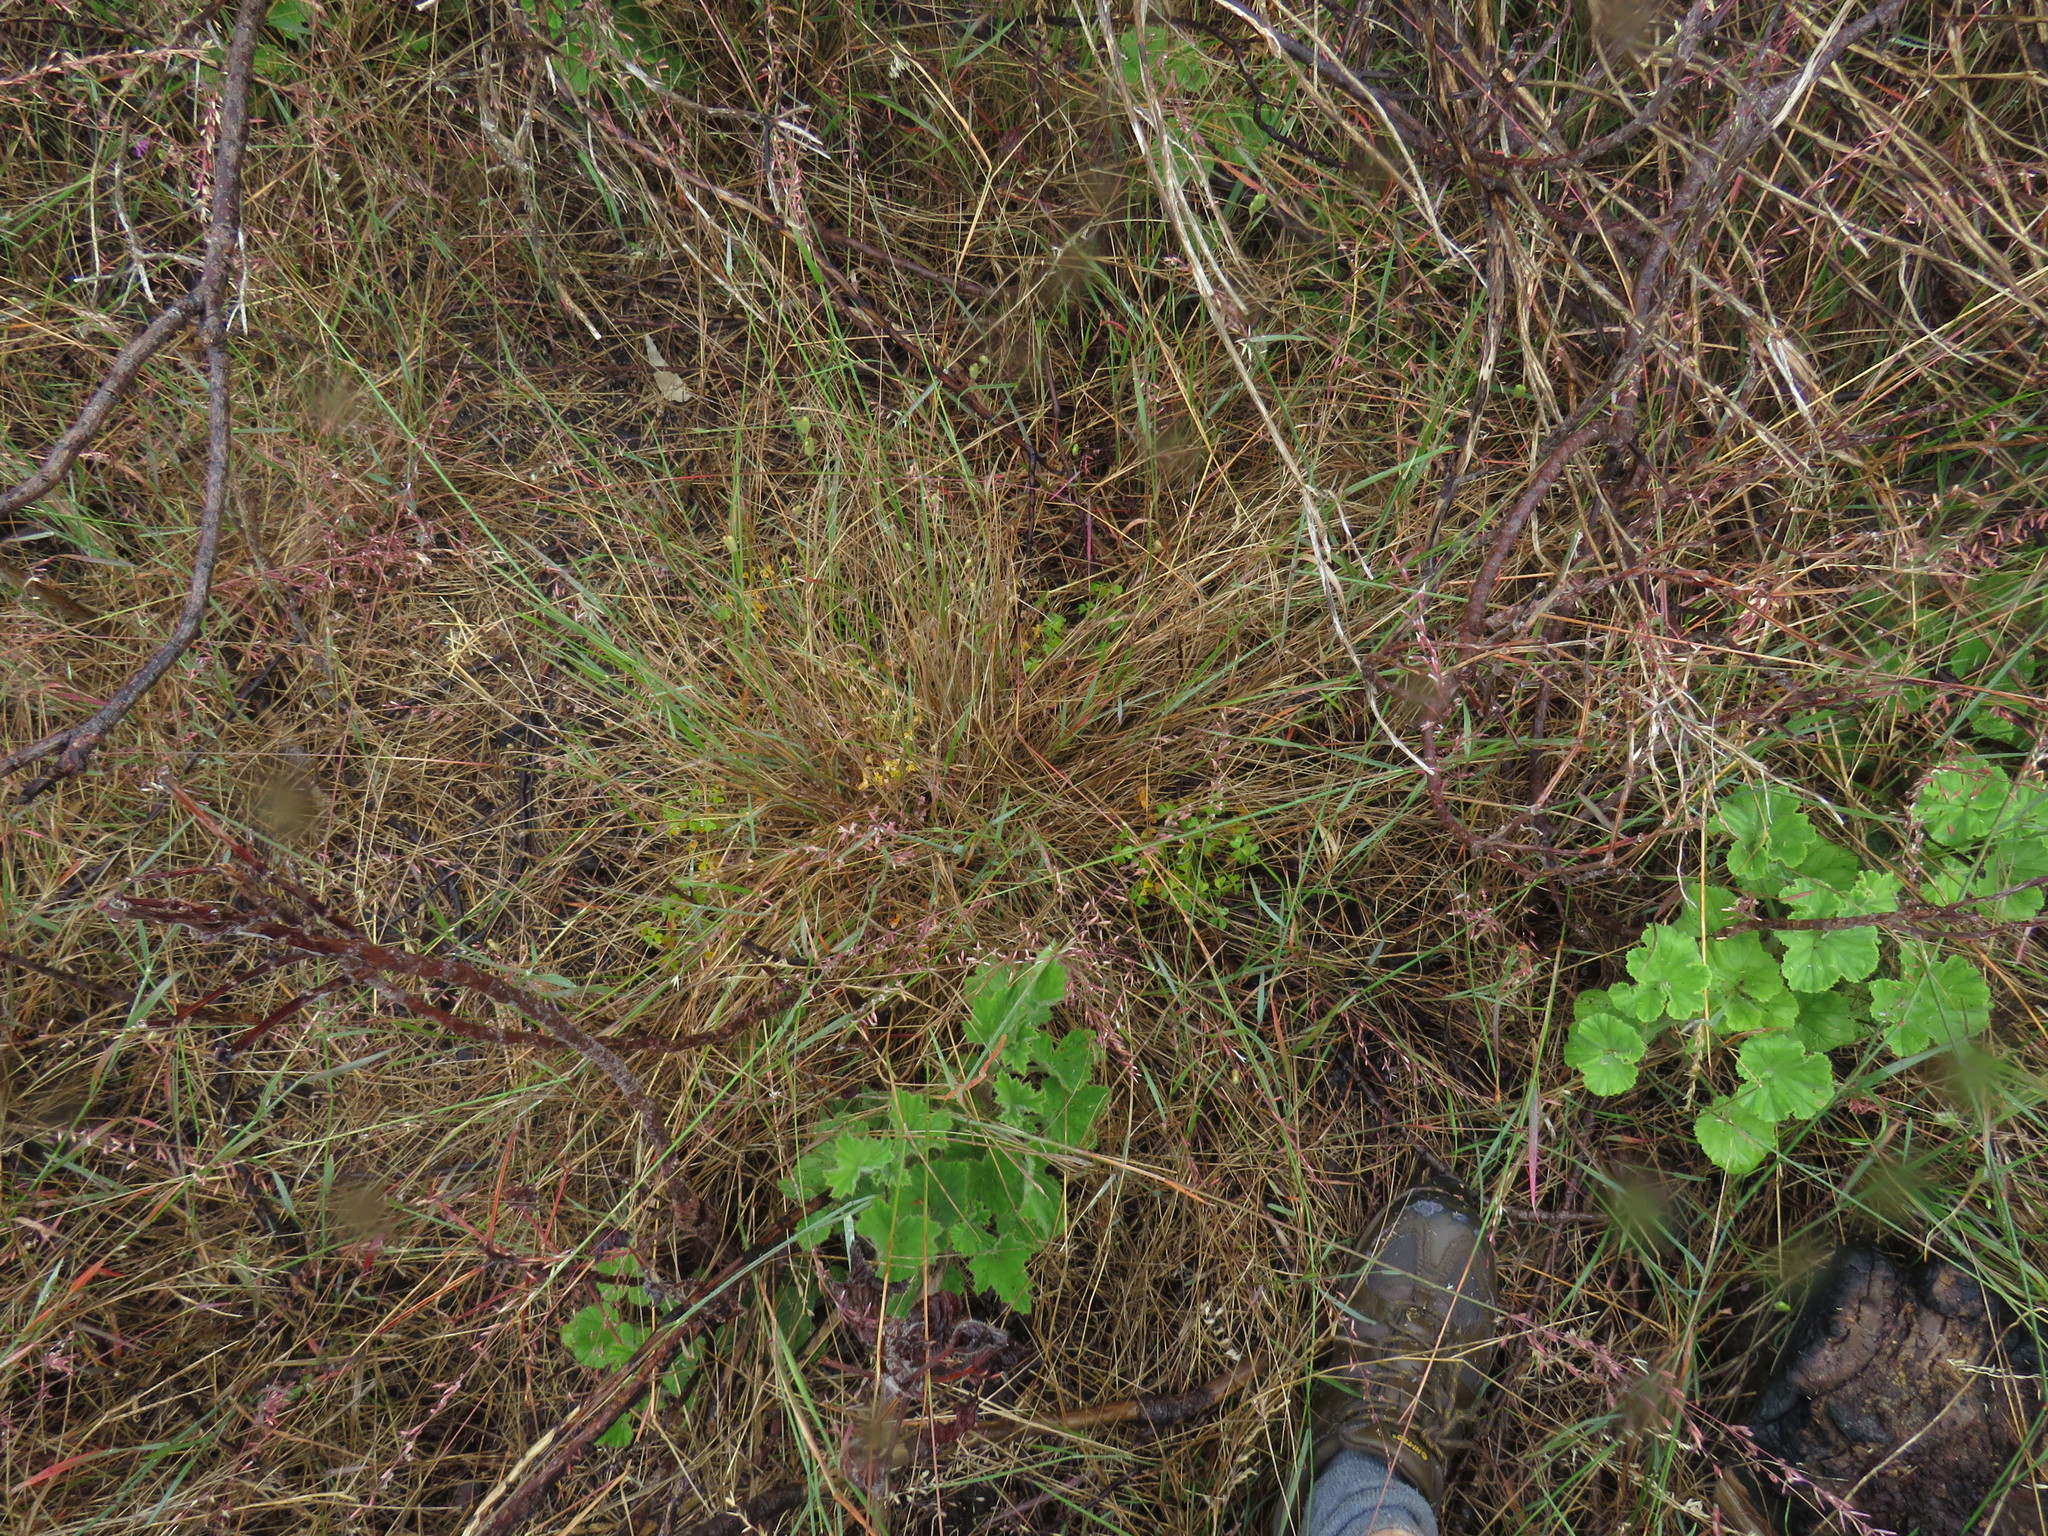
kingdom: Plantae
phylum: Tracheophyta
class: Liliopsida
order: Poales
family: Poaceae
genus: Ehrharta
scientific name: Ehrharta calycina
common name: Perennial veldtgrass
